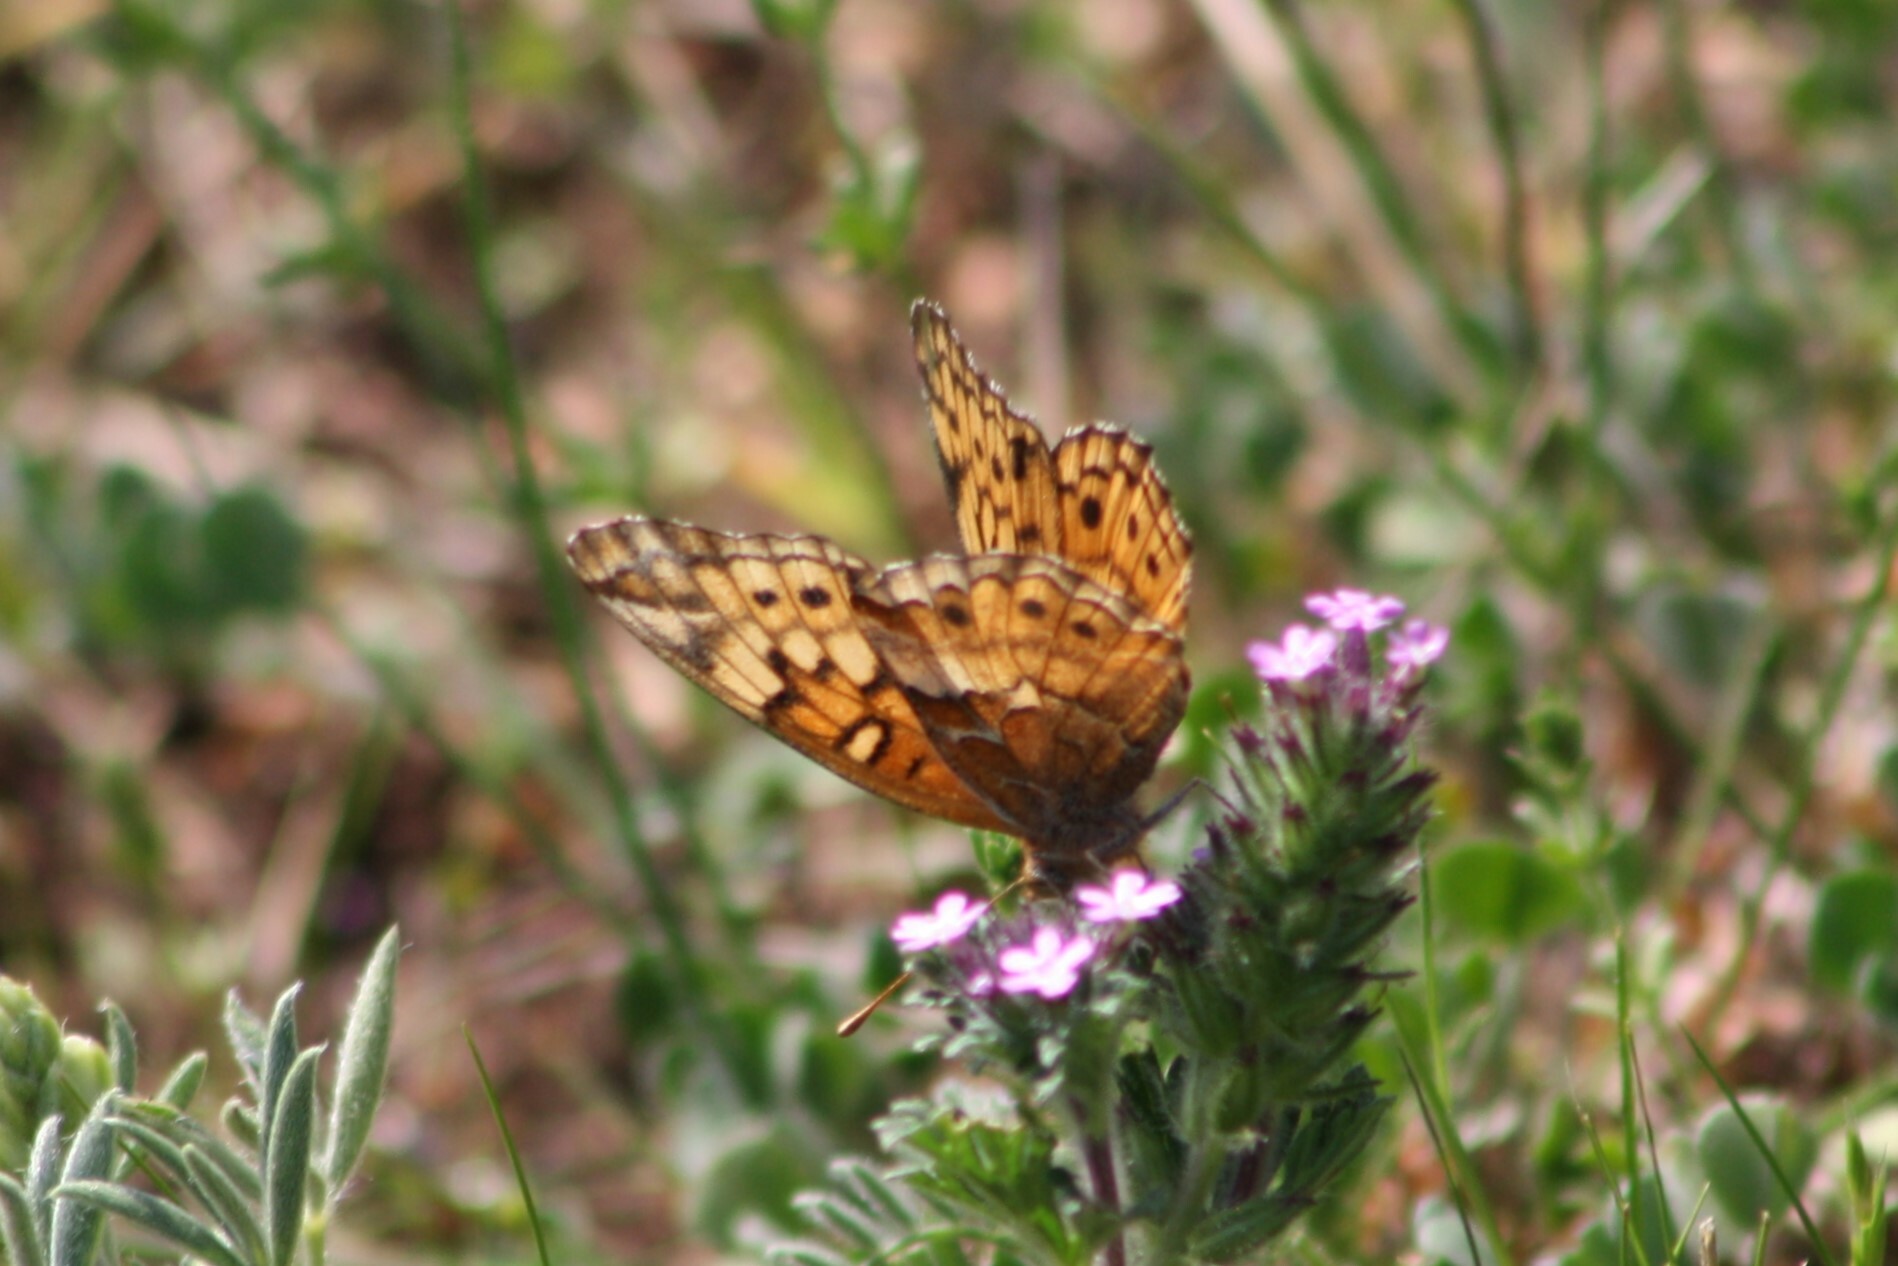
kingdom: Animalia
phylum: Arthropoda
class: Insecta
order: Lepidoptera
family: Nymphalidae
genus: Euptoieta
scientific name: Euptoieta claudia
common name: Variegated fritillary
